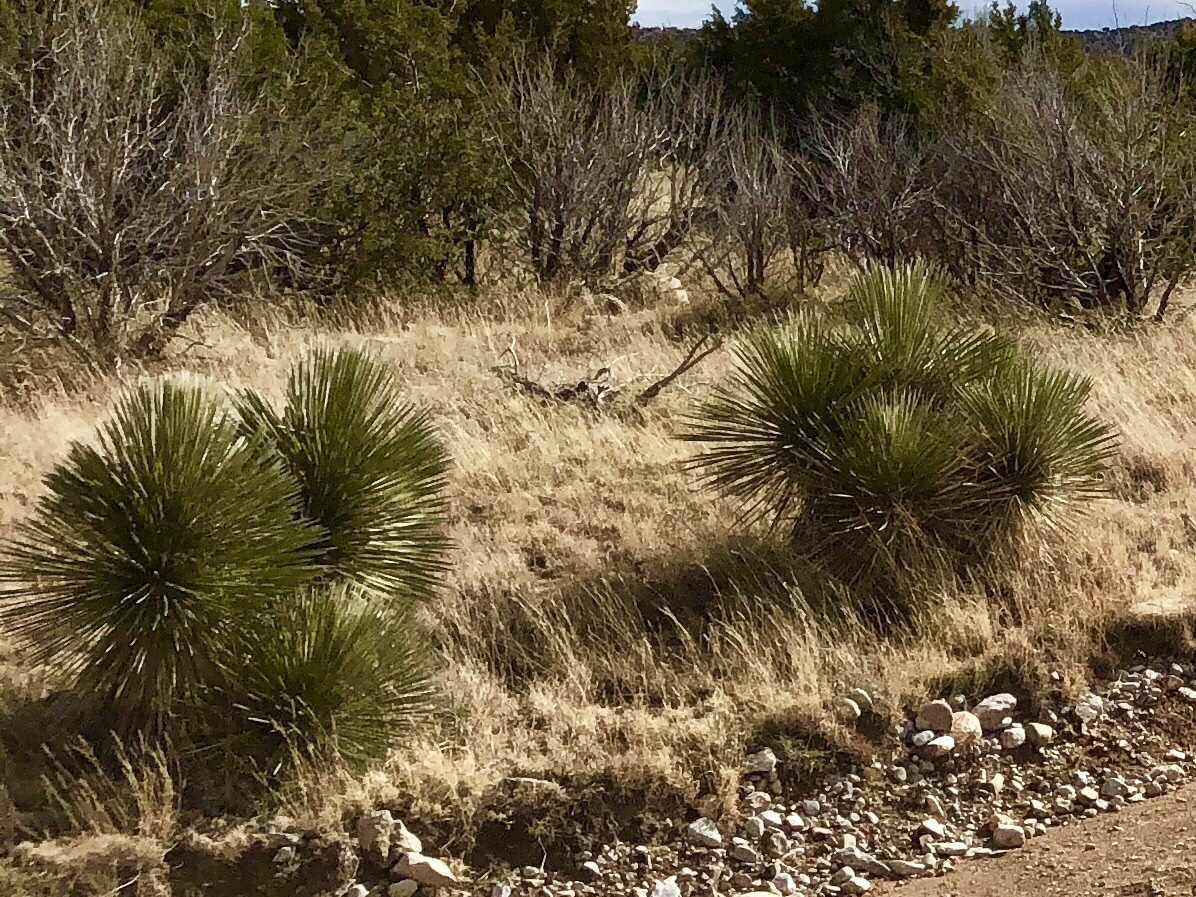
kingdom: Plantae
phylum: Tracheophyta
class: Liliopsida
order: Asparagales
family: Asparagaceae
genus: Yucca
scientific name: Yucca elata
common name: Palmella
